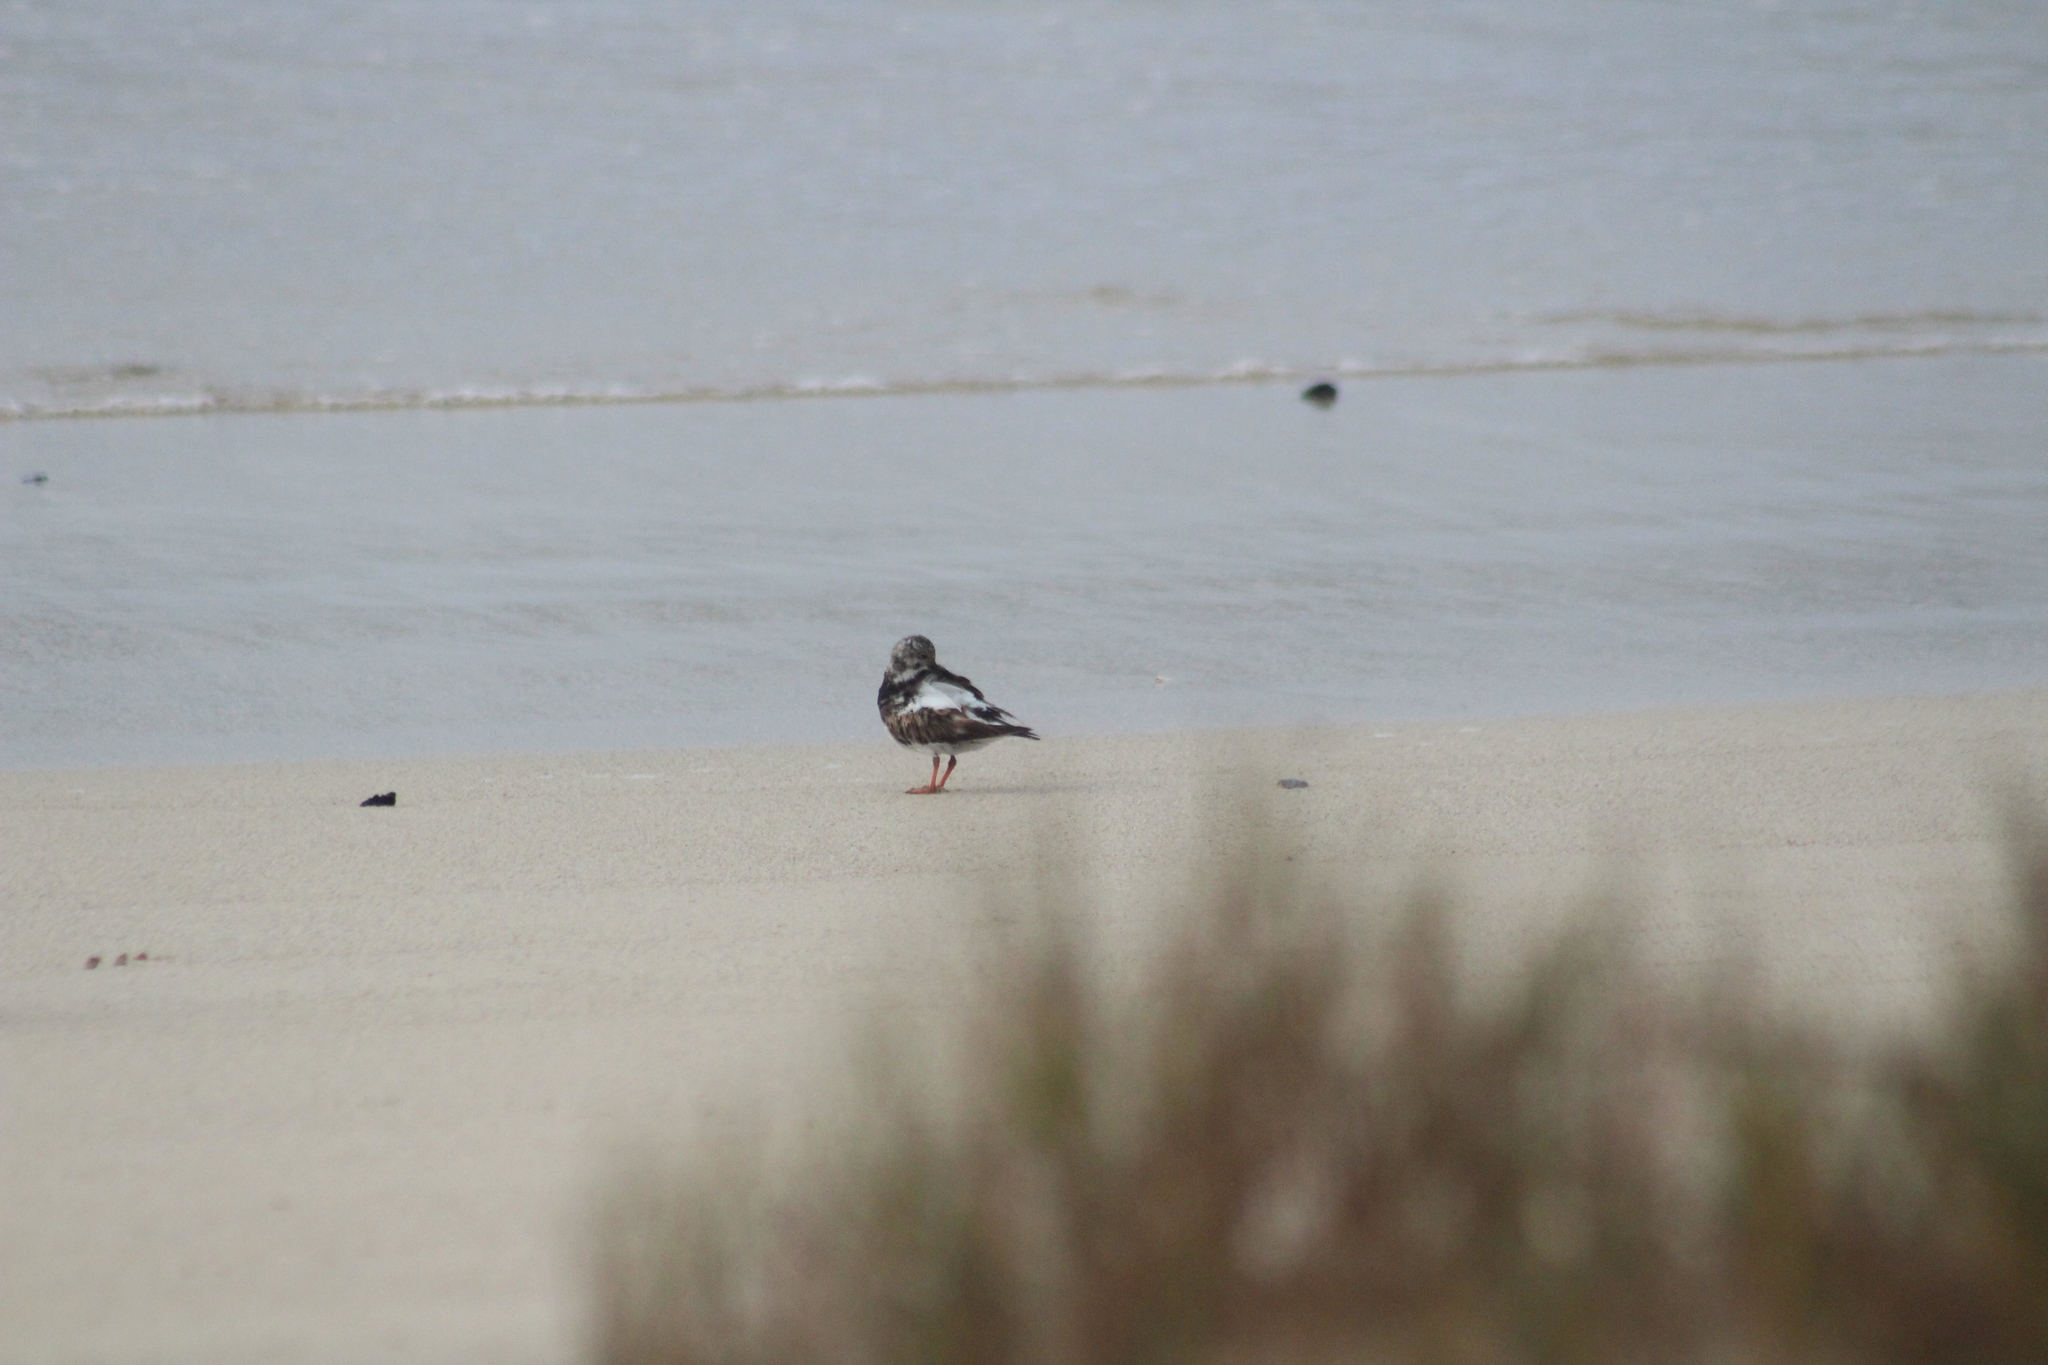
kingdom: Animalia
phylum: Chordata
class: Aves
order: Charadriiformes
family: Scolopacidae
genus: Arenaria
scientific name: Arenaria interpres
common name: Ruddy turnstone
